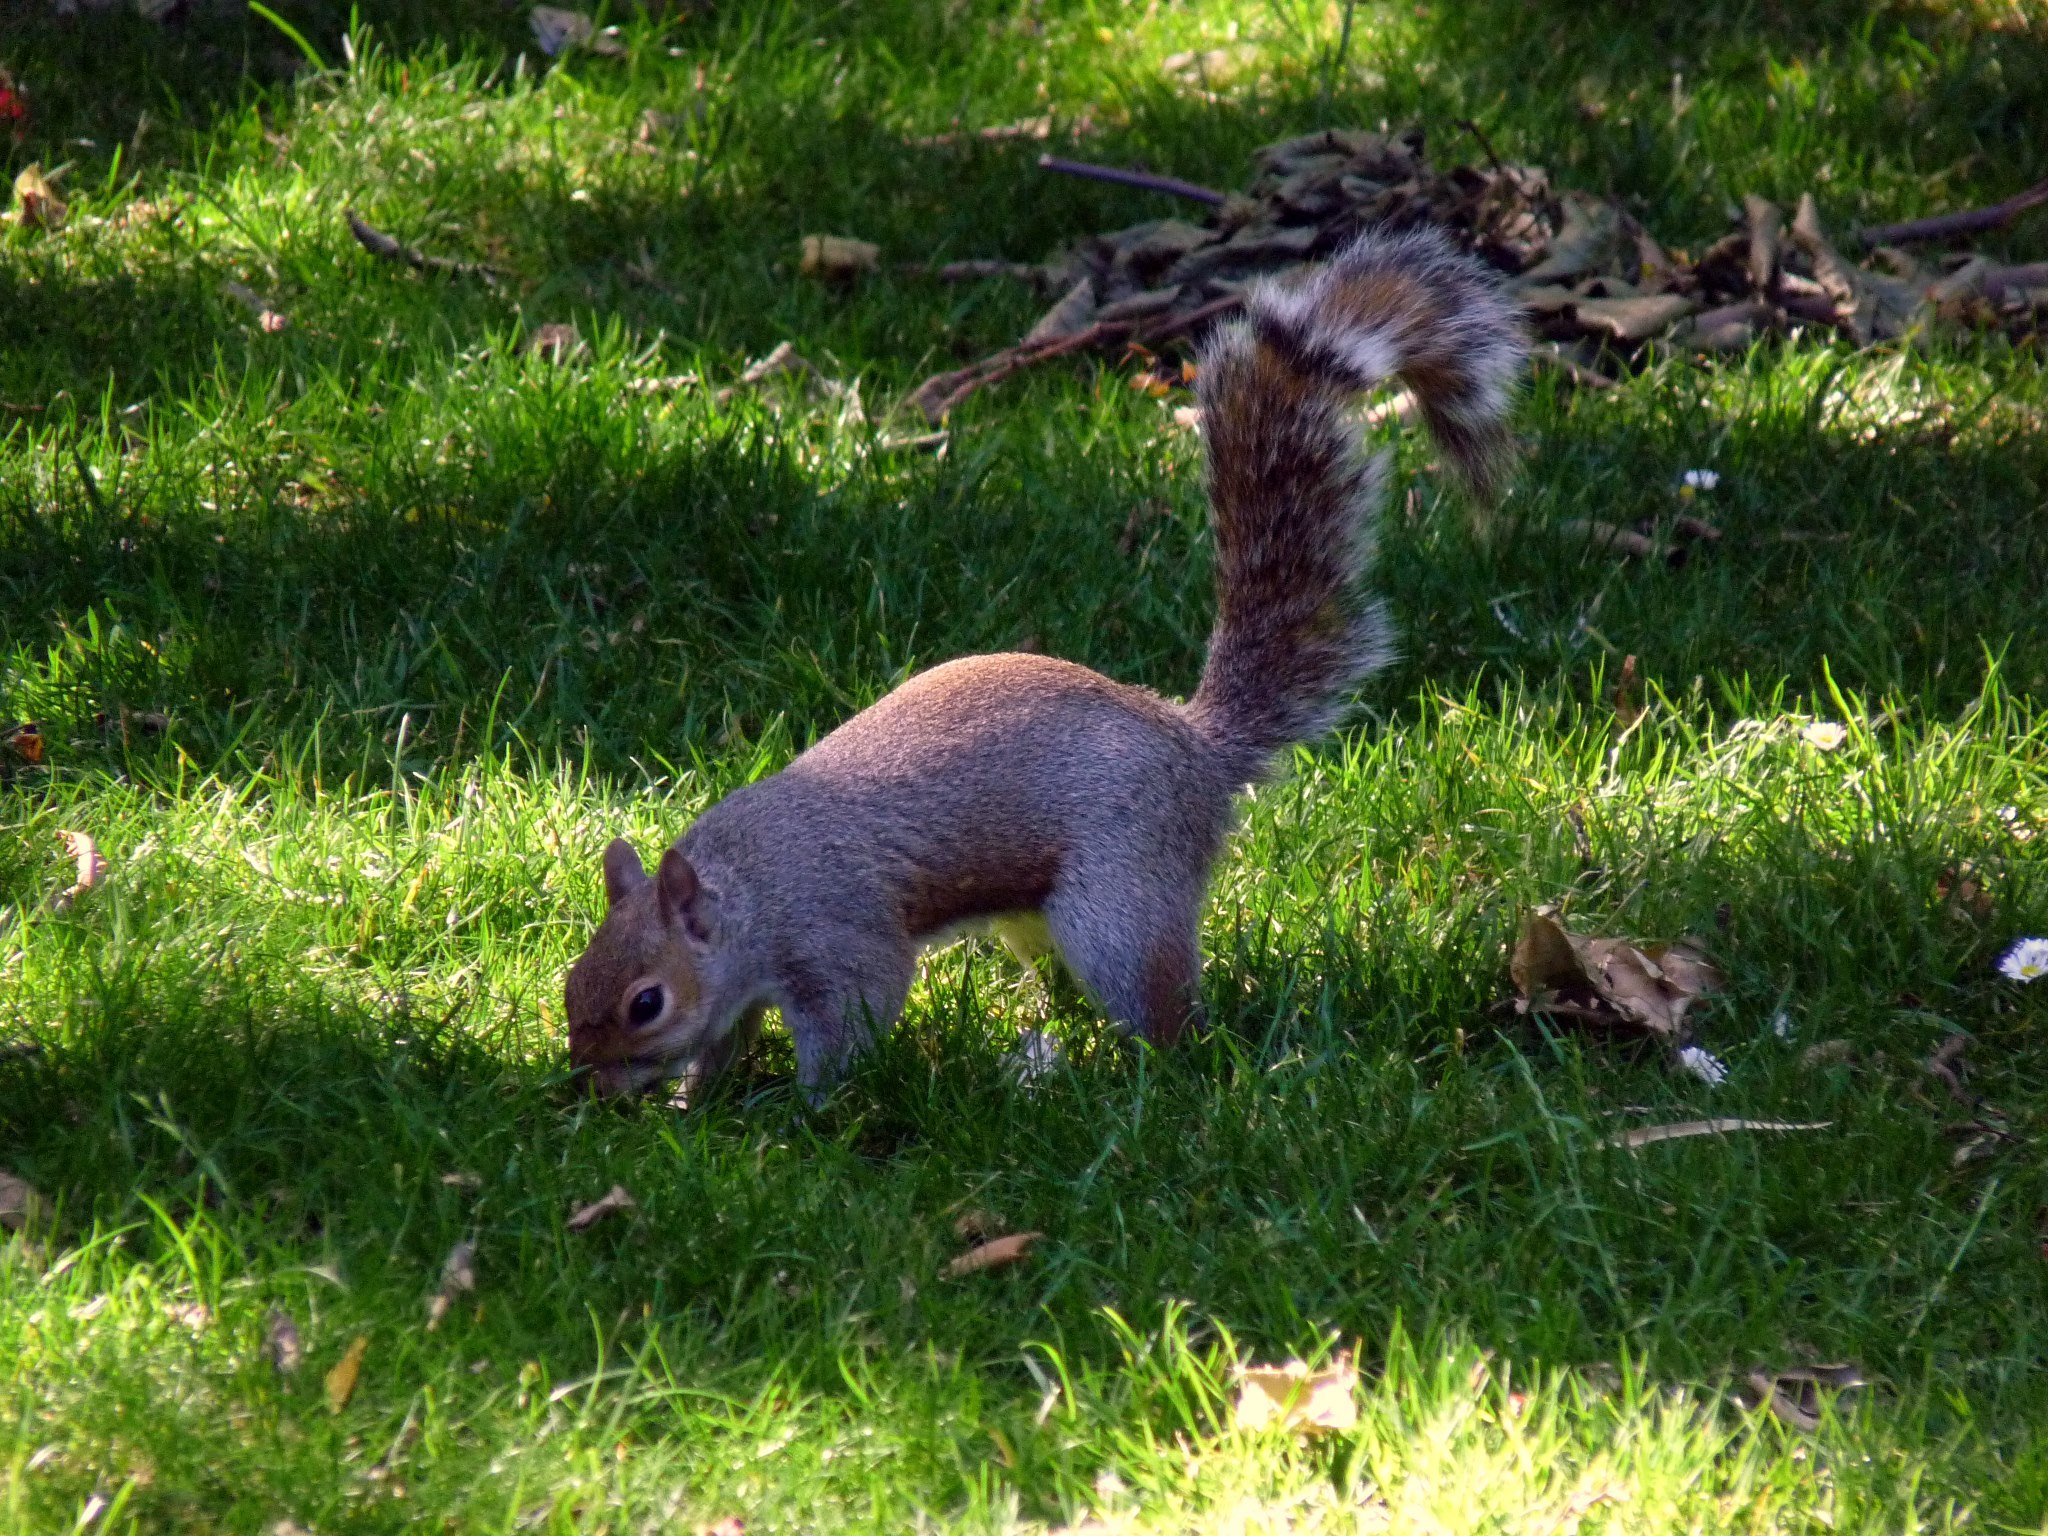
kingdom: Animalia
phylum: Chordata
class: Mammalia
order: Rodentia
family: Sciuridae
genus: Sciurus
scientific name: Sciurus carolinensis
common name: Eastern gray squirrel
